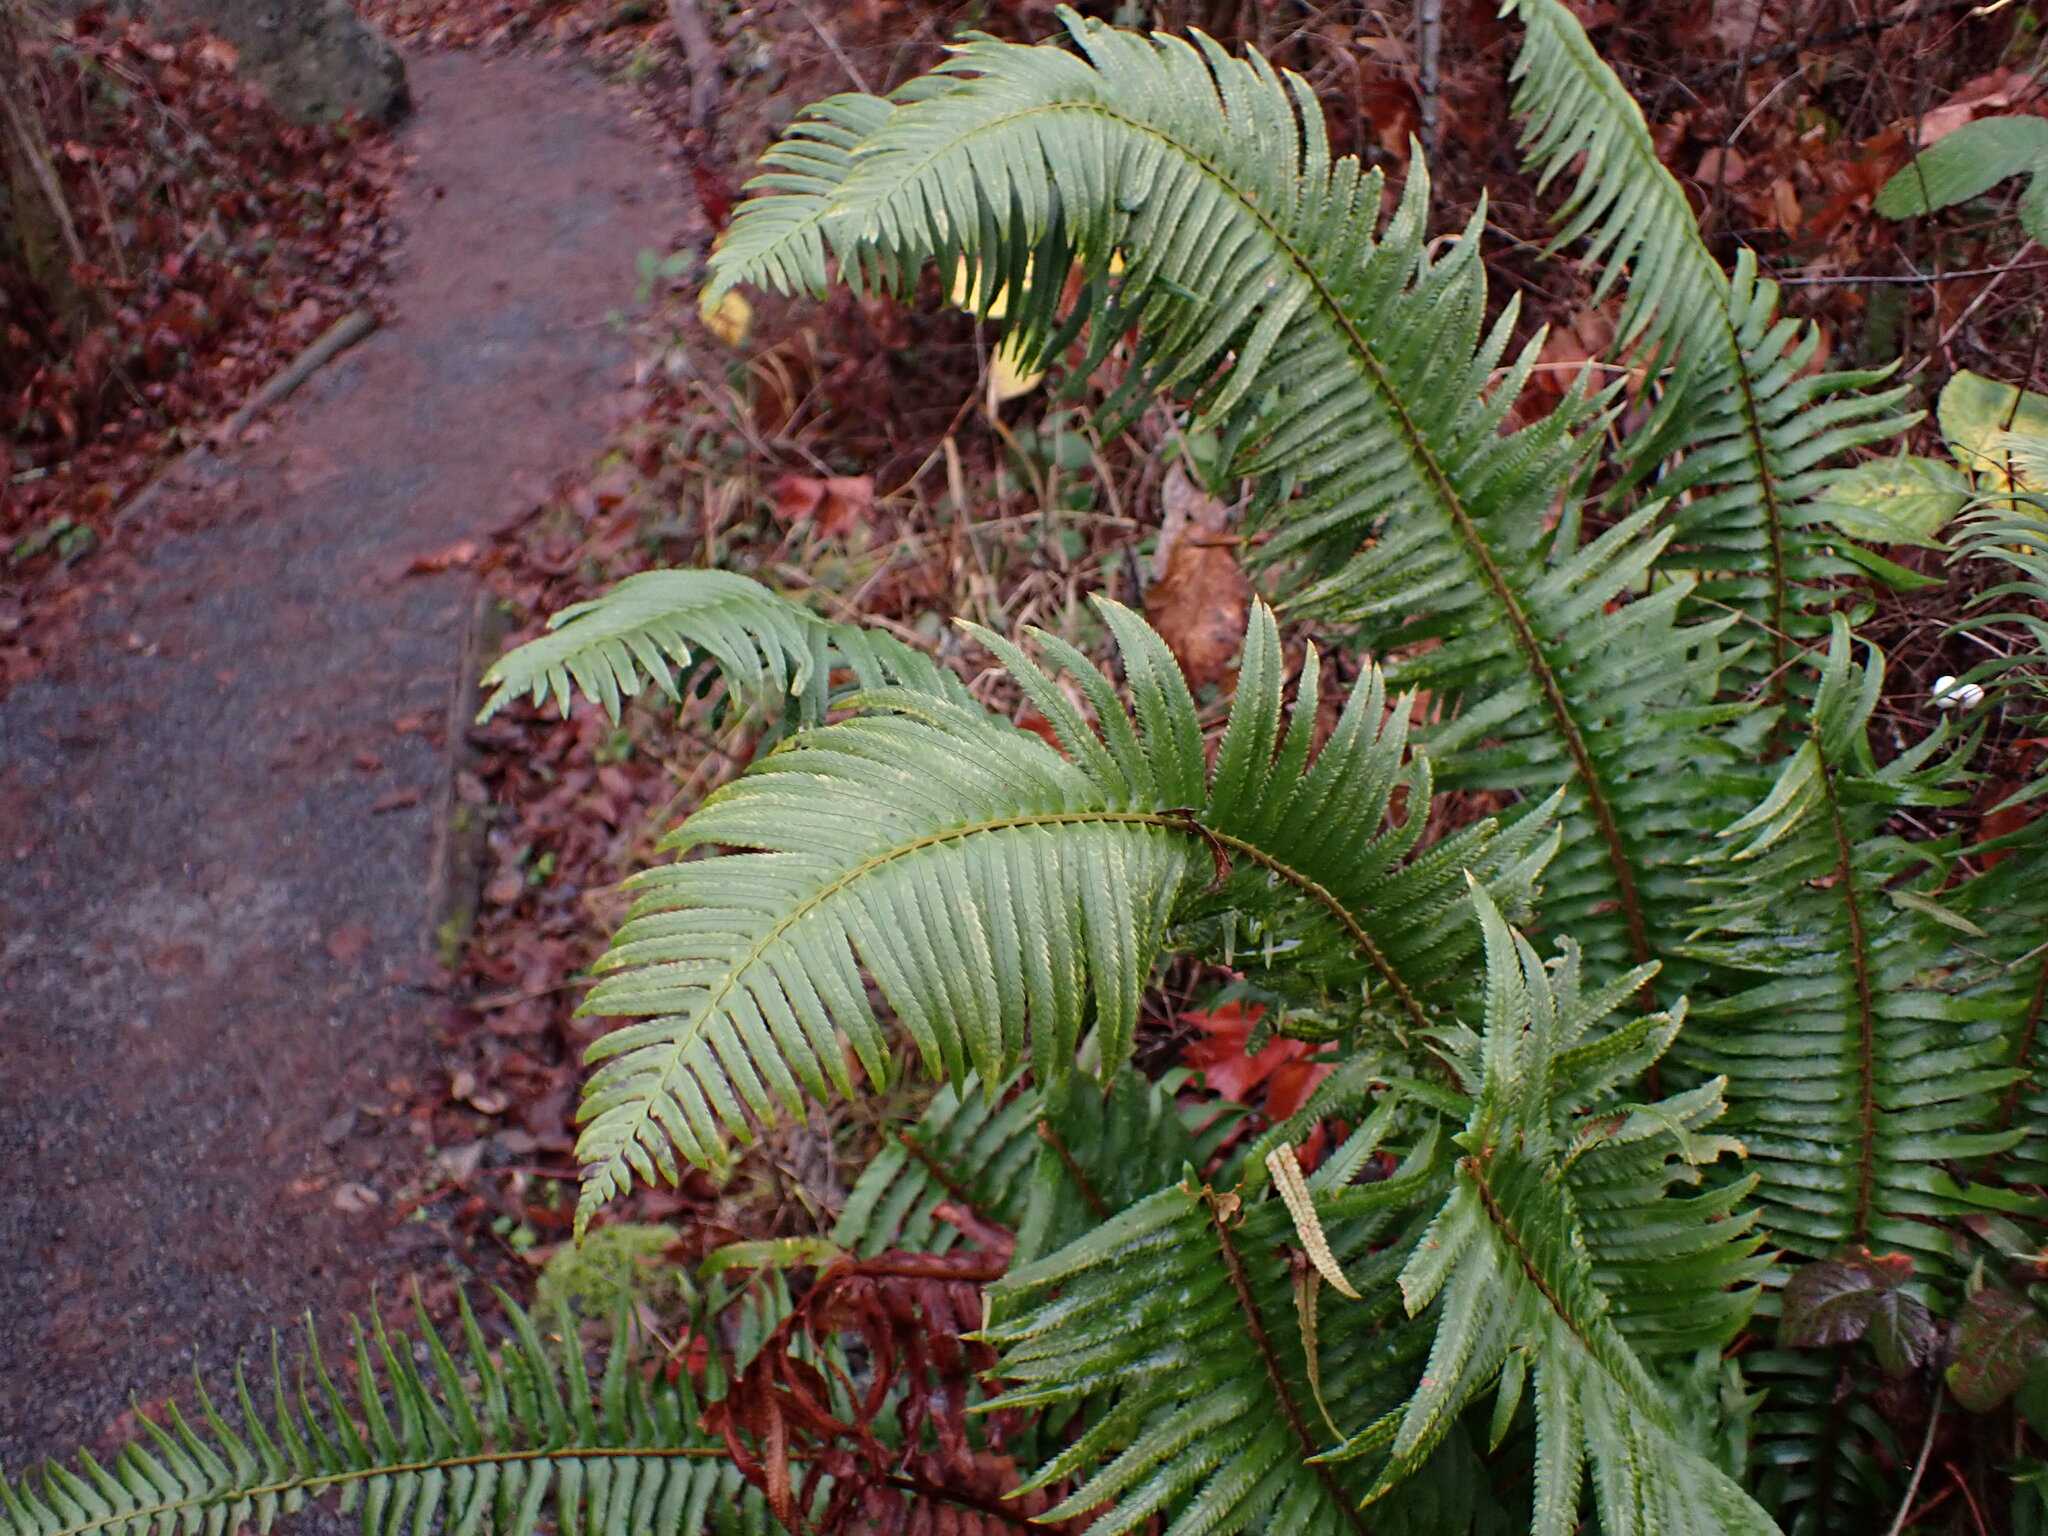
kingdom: Plantae
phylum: Tracheophyta
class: Polypodiopsida
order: Polypodiales
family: Dryopteridaceae
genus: Polystichum
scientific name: Polystichum munitum
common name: Western sword-fern
